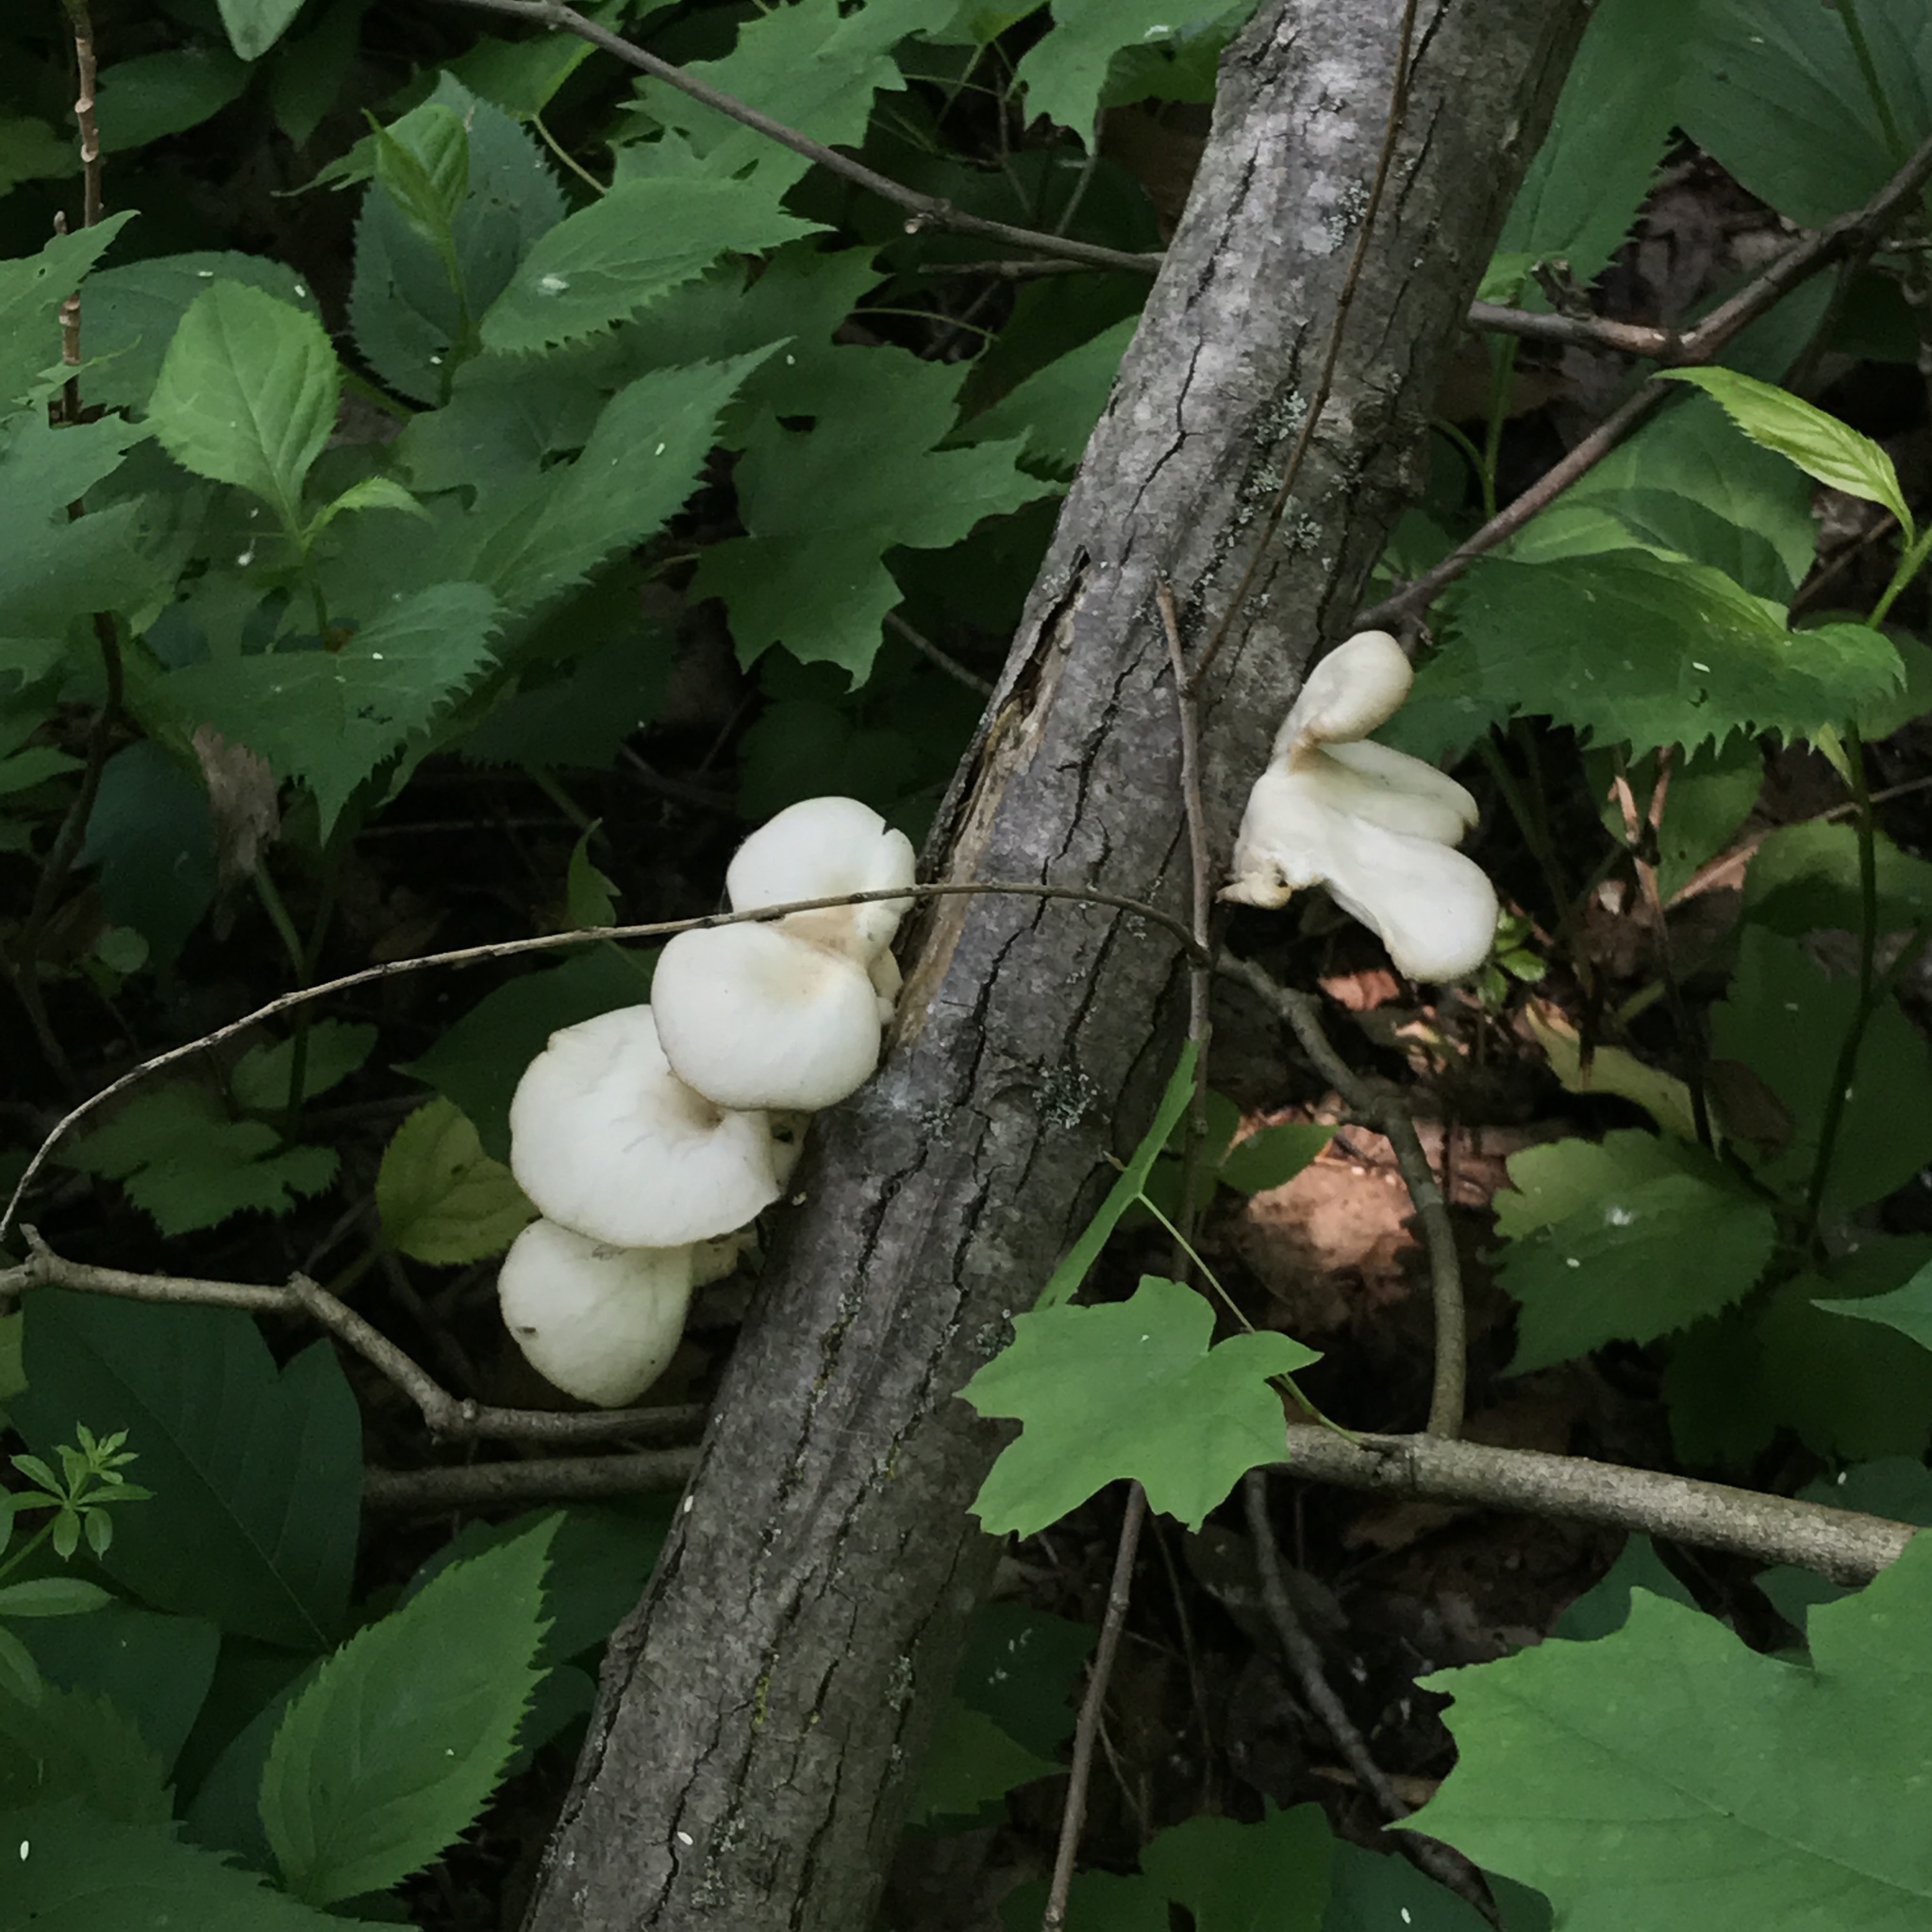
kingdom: Fungi
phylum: Basidiomycota
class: Agaricomycetes
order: Agaricales
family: Pleurotaceae
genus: Pleurotus
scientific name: Pleurotus pulmonarius
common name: Pale oyster
